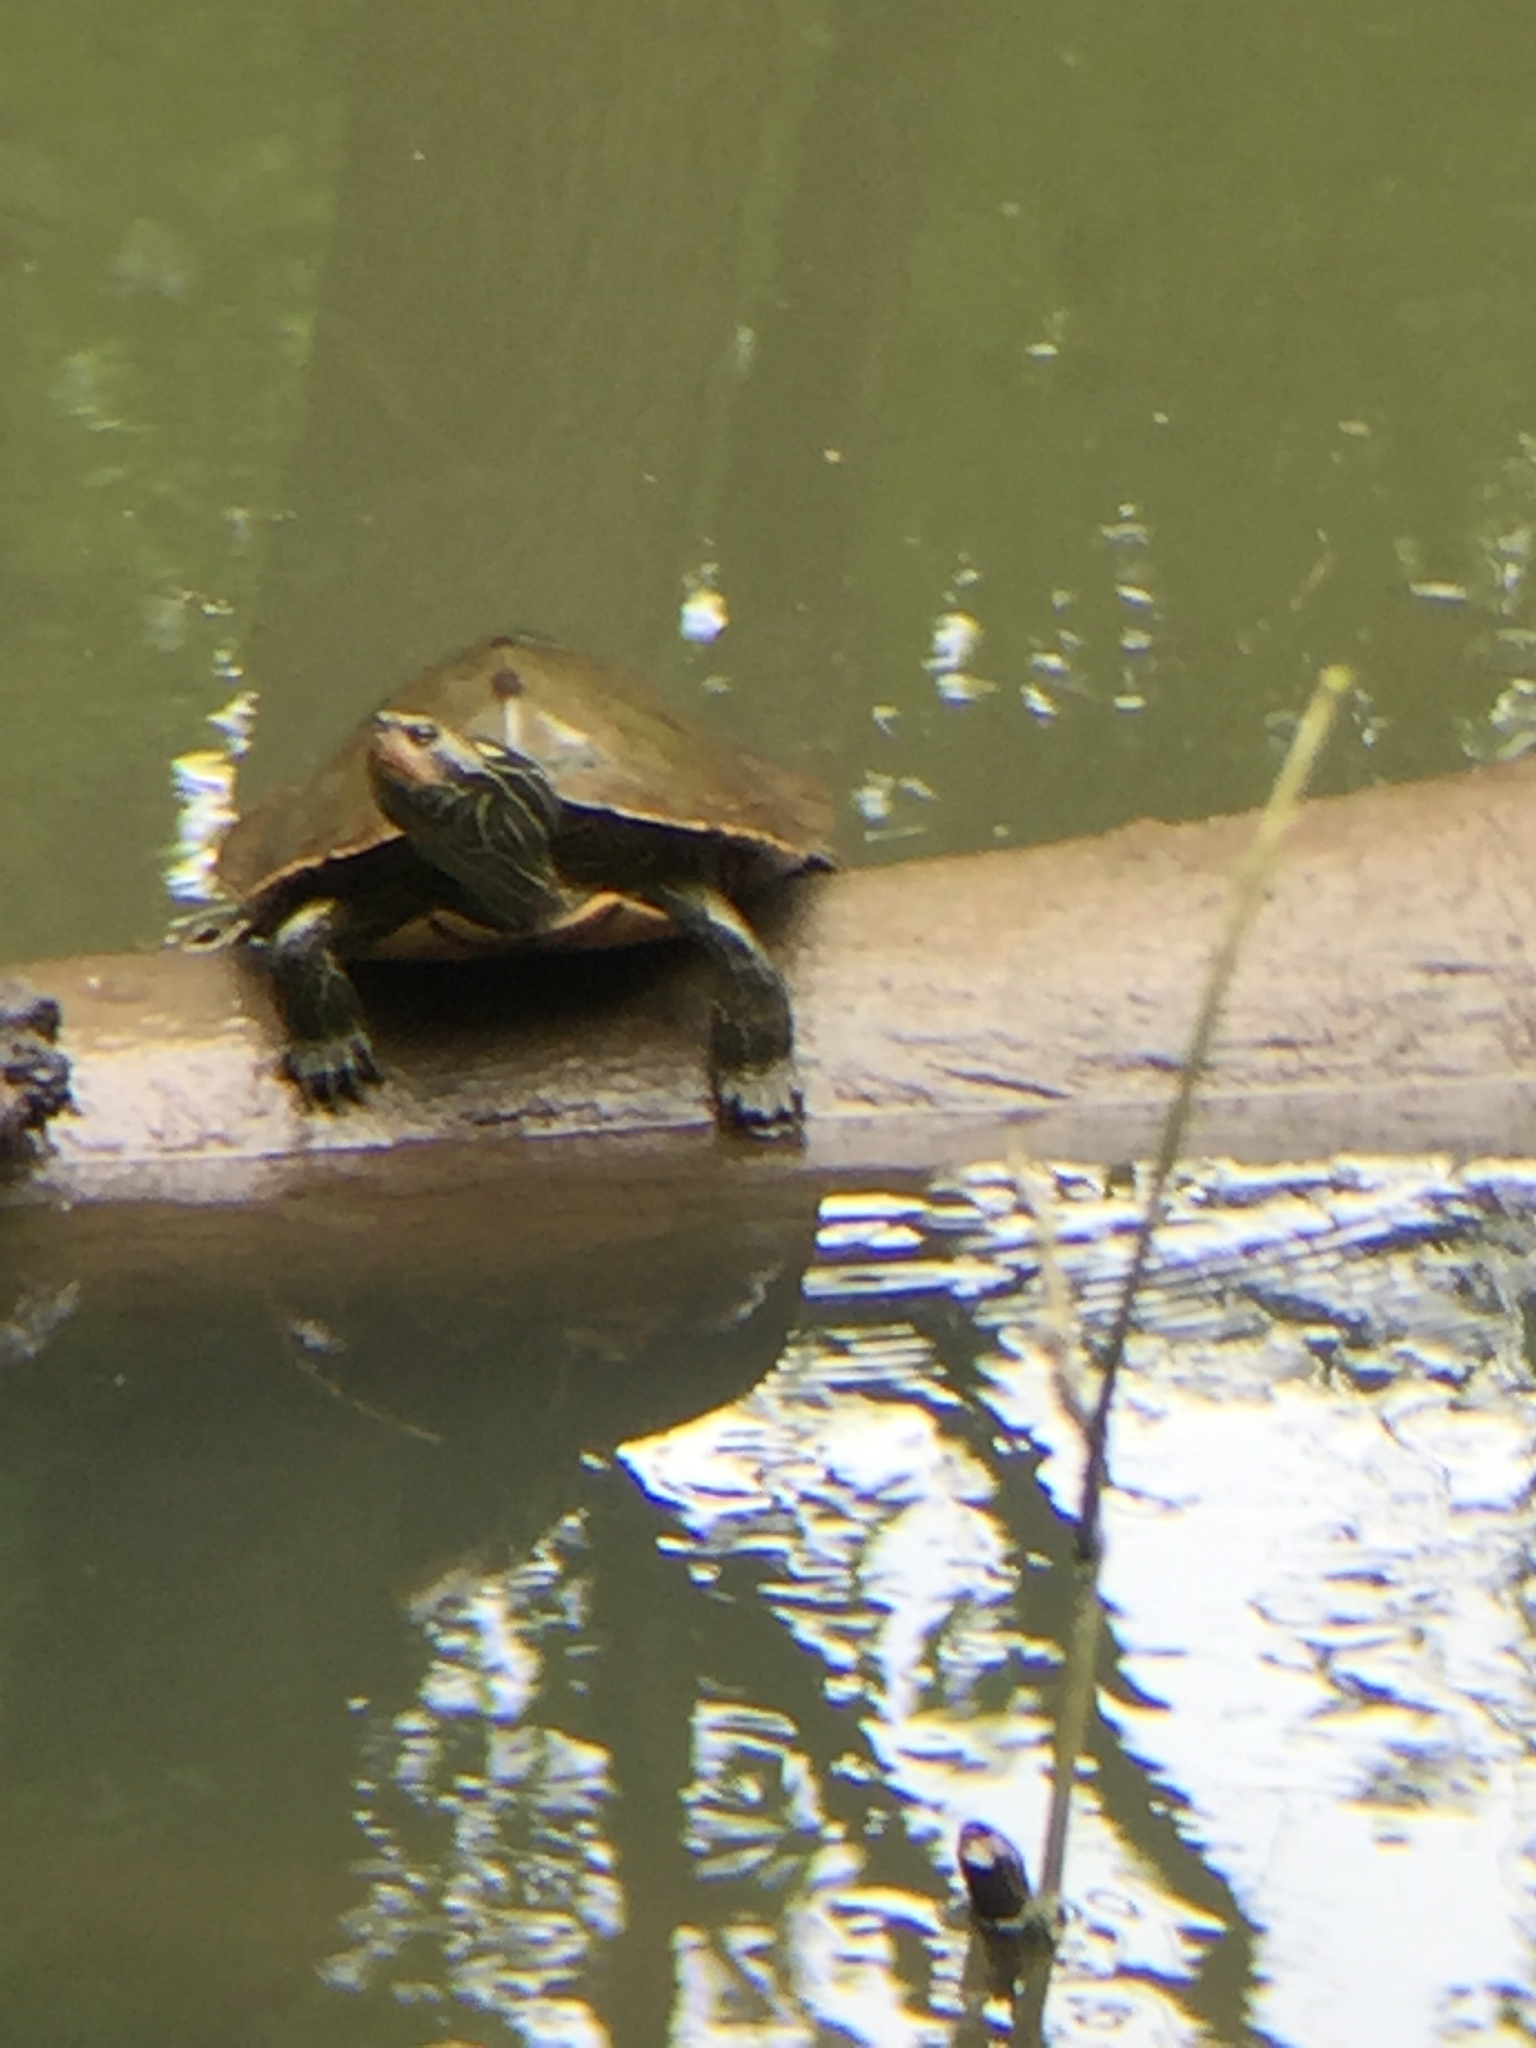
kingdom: Animalia
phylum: Chordata
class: Testudines
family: Emydidae
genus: Graptemys
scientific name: Graptemys geographica
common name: Common map turtle
